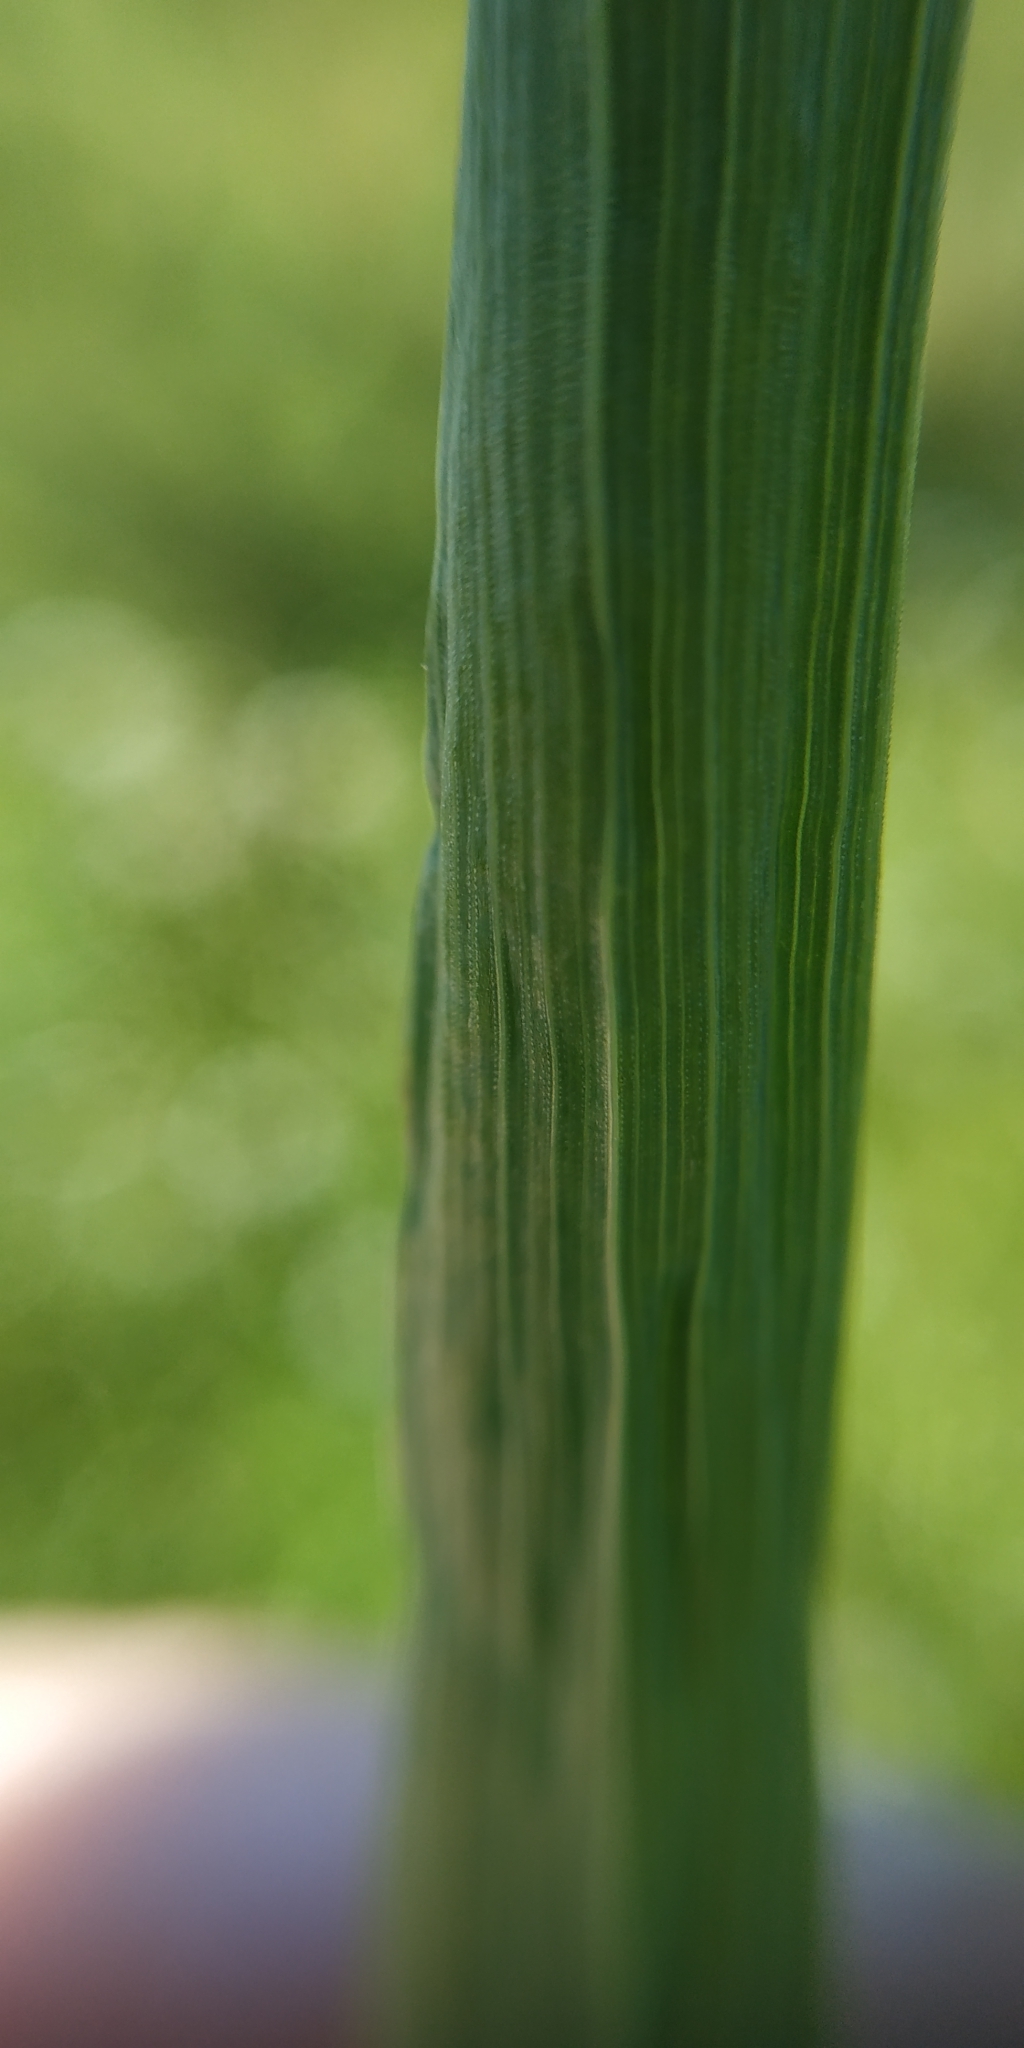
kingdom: Plantae
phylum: Tracheophyta
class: Liliopsida
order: Poales
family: Poaceae
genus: Bromus
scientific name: Bromus inermis
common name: Smooth brome
